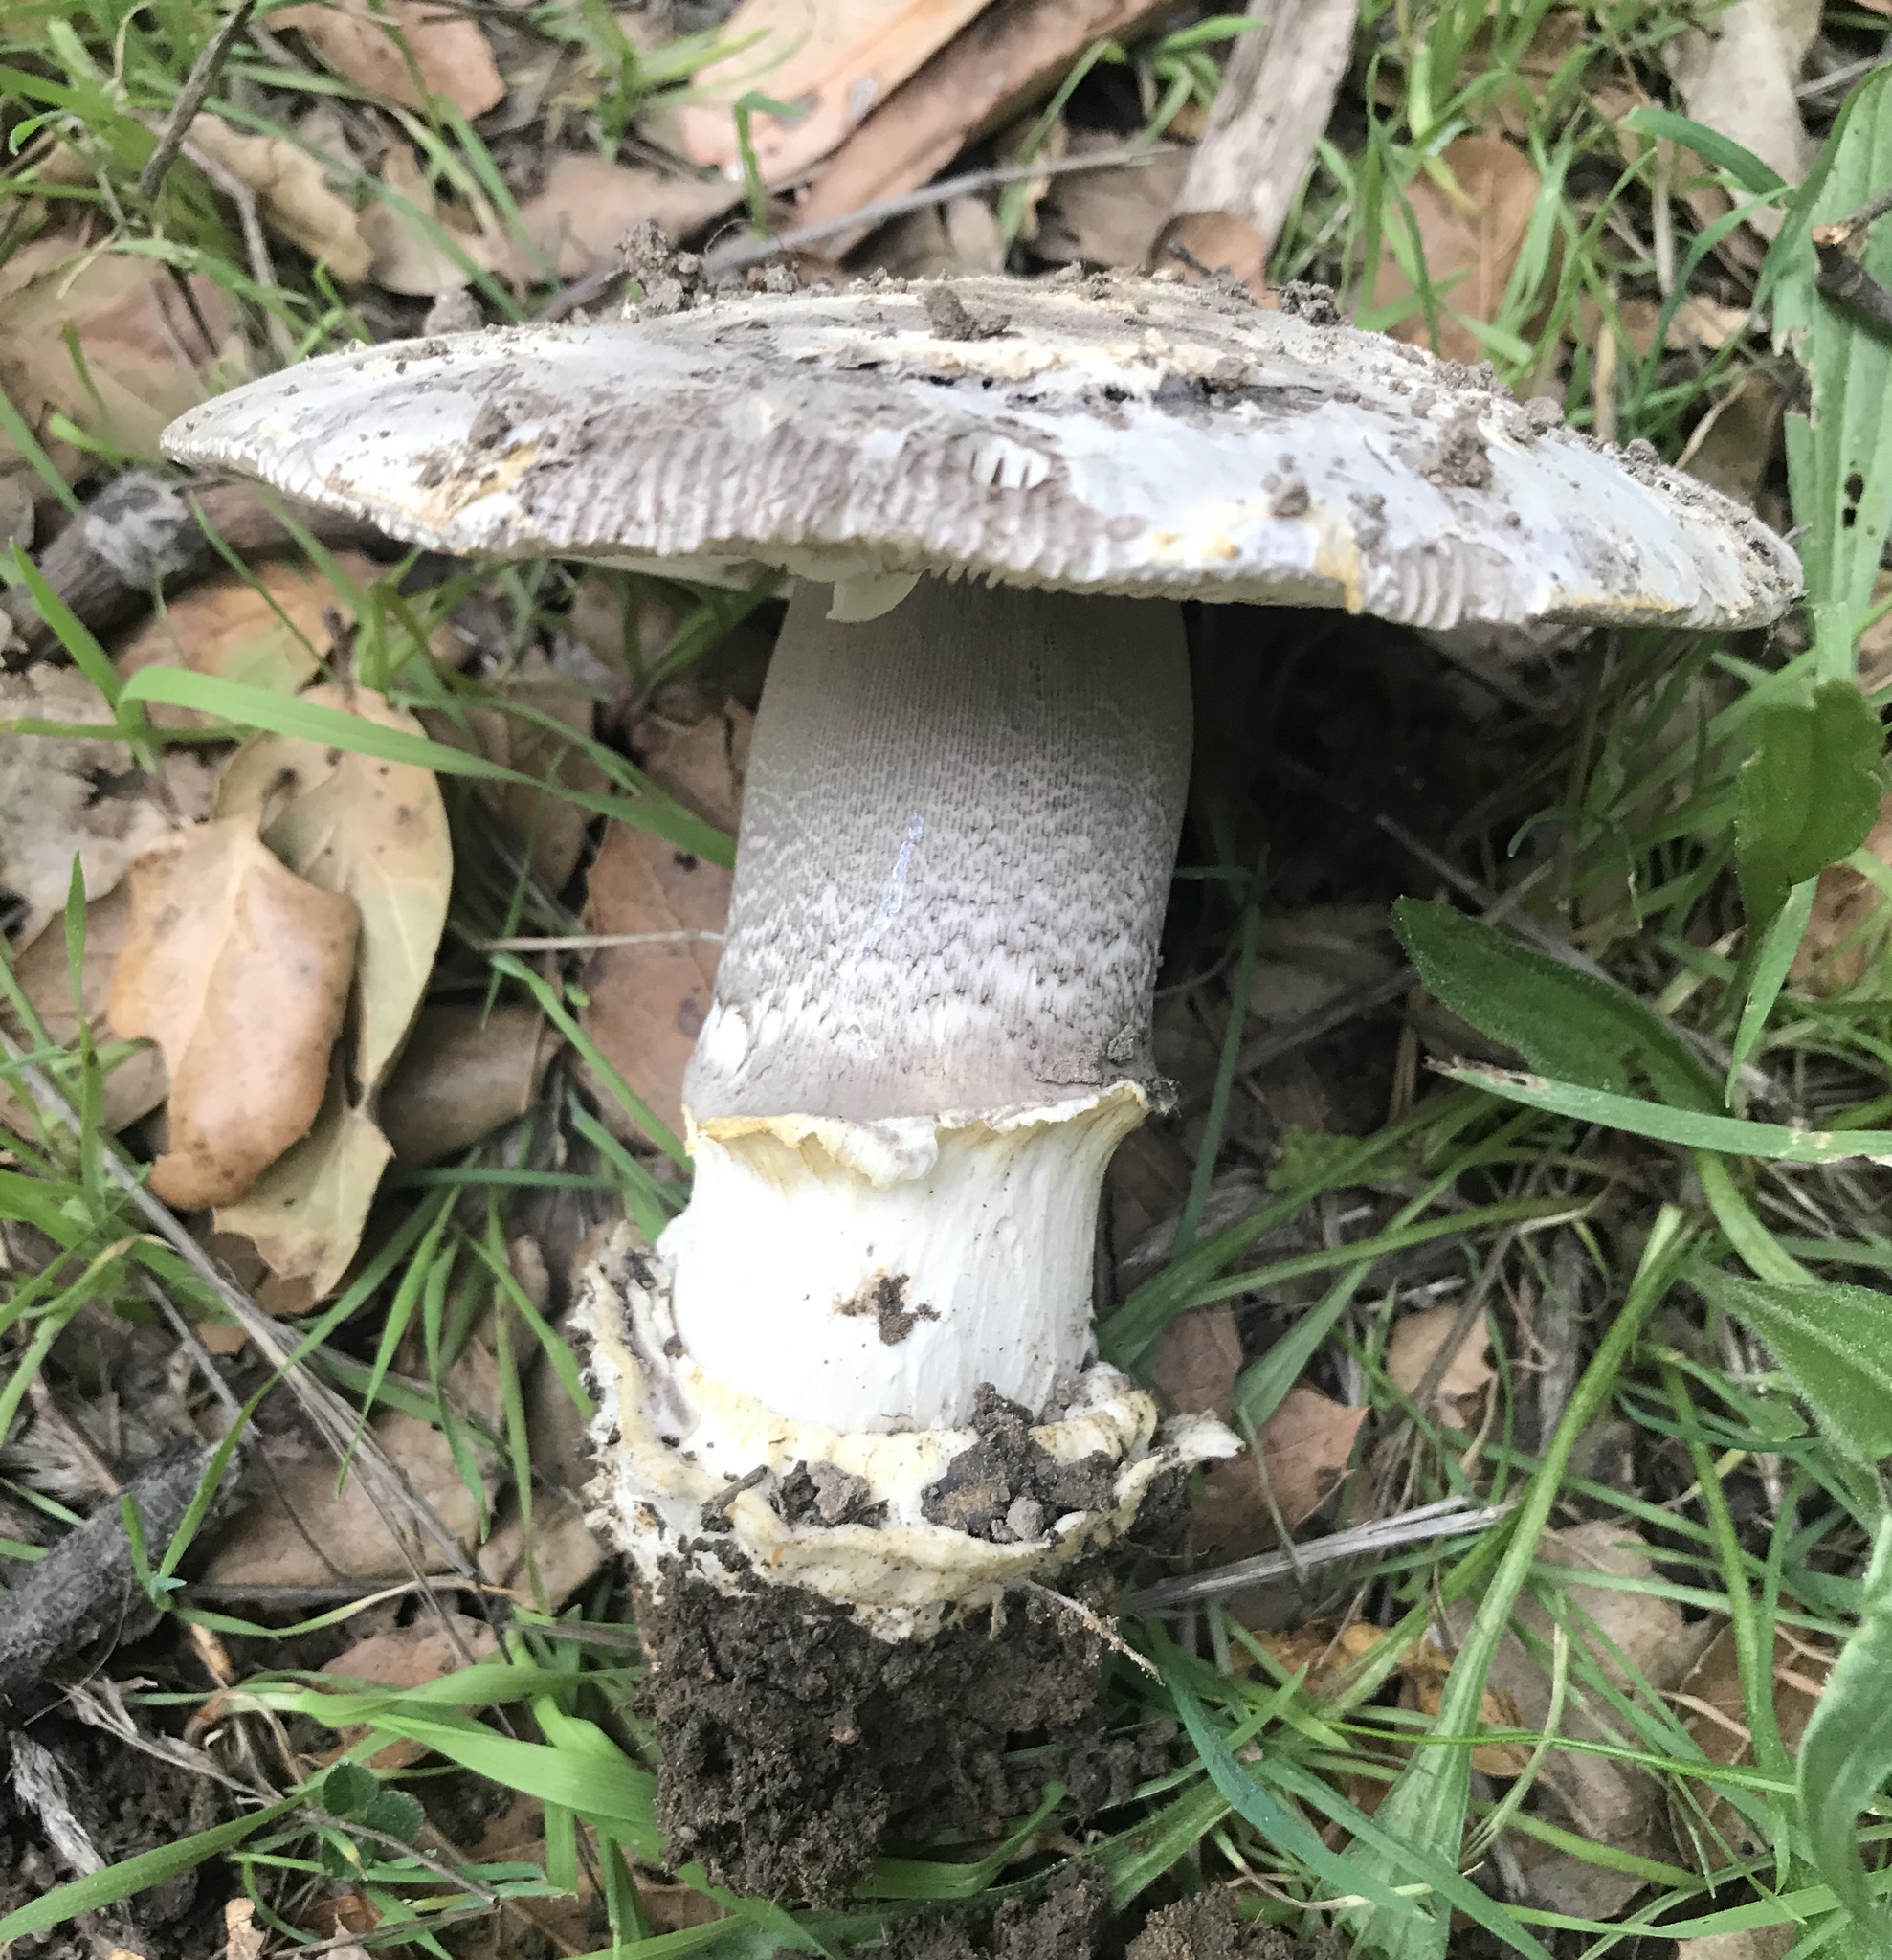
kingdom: Fungi
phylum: Basidiomycota
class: Agaricomycetes
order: Agaricales
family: Amanitaceae
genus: Amanita
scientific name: Amanita protecta
